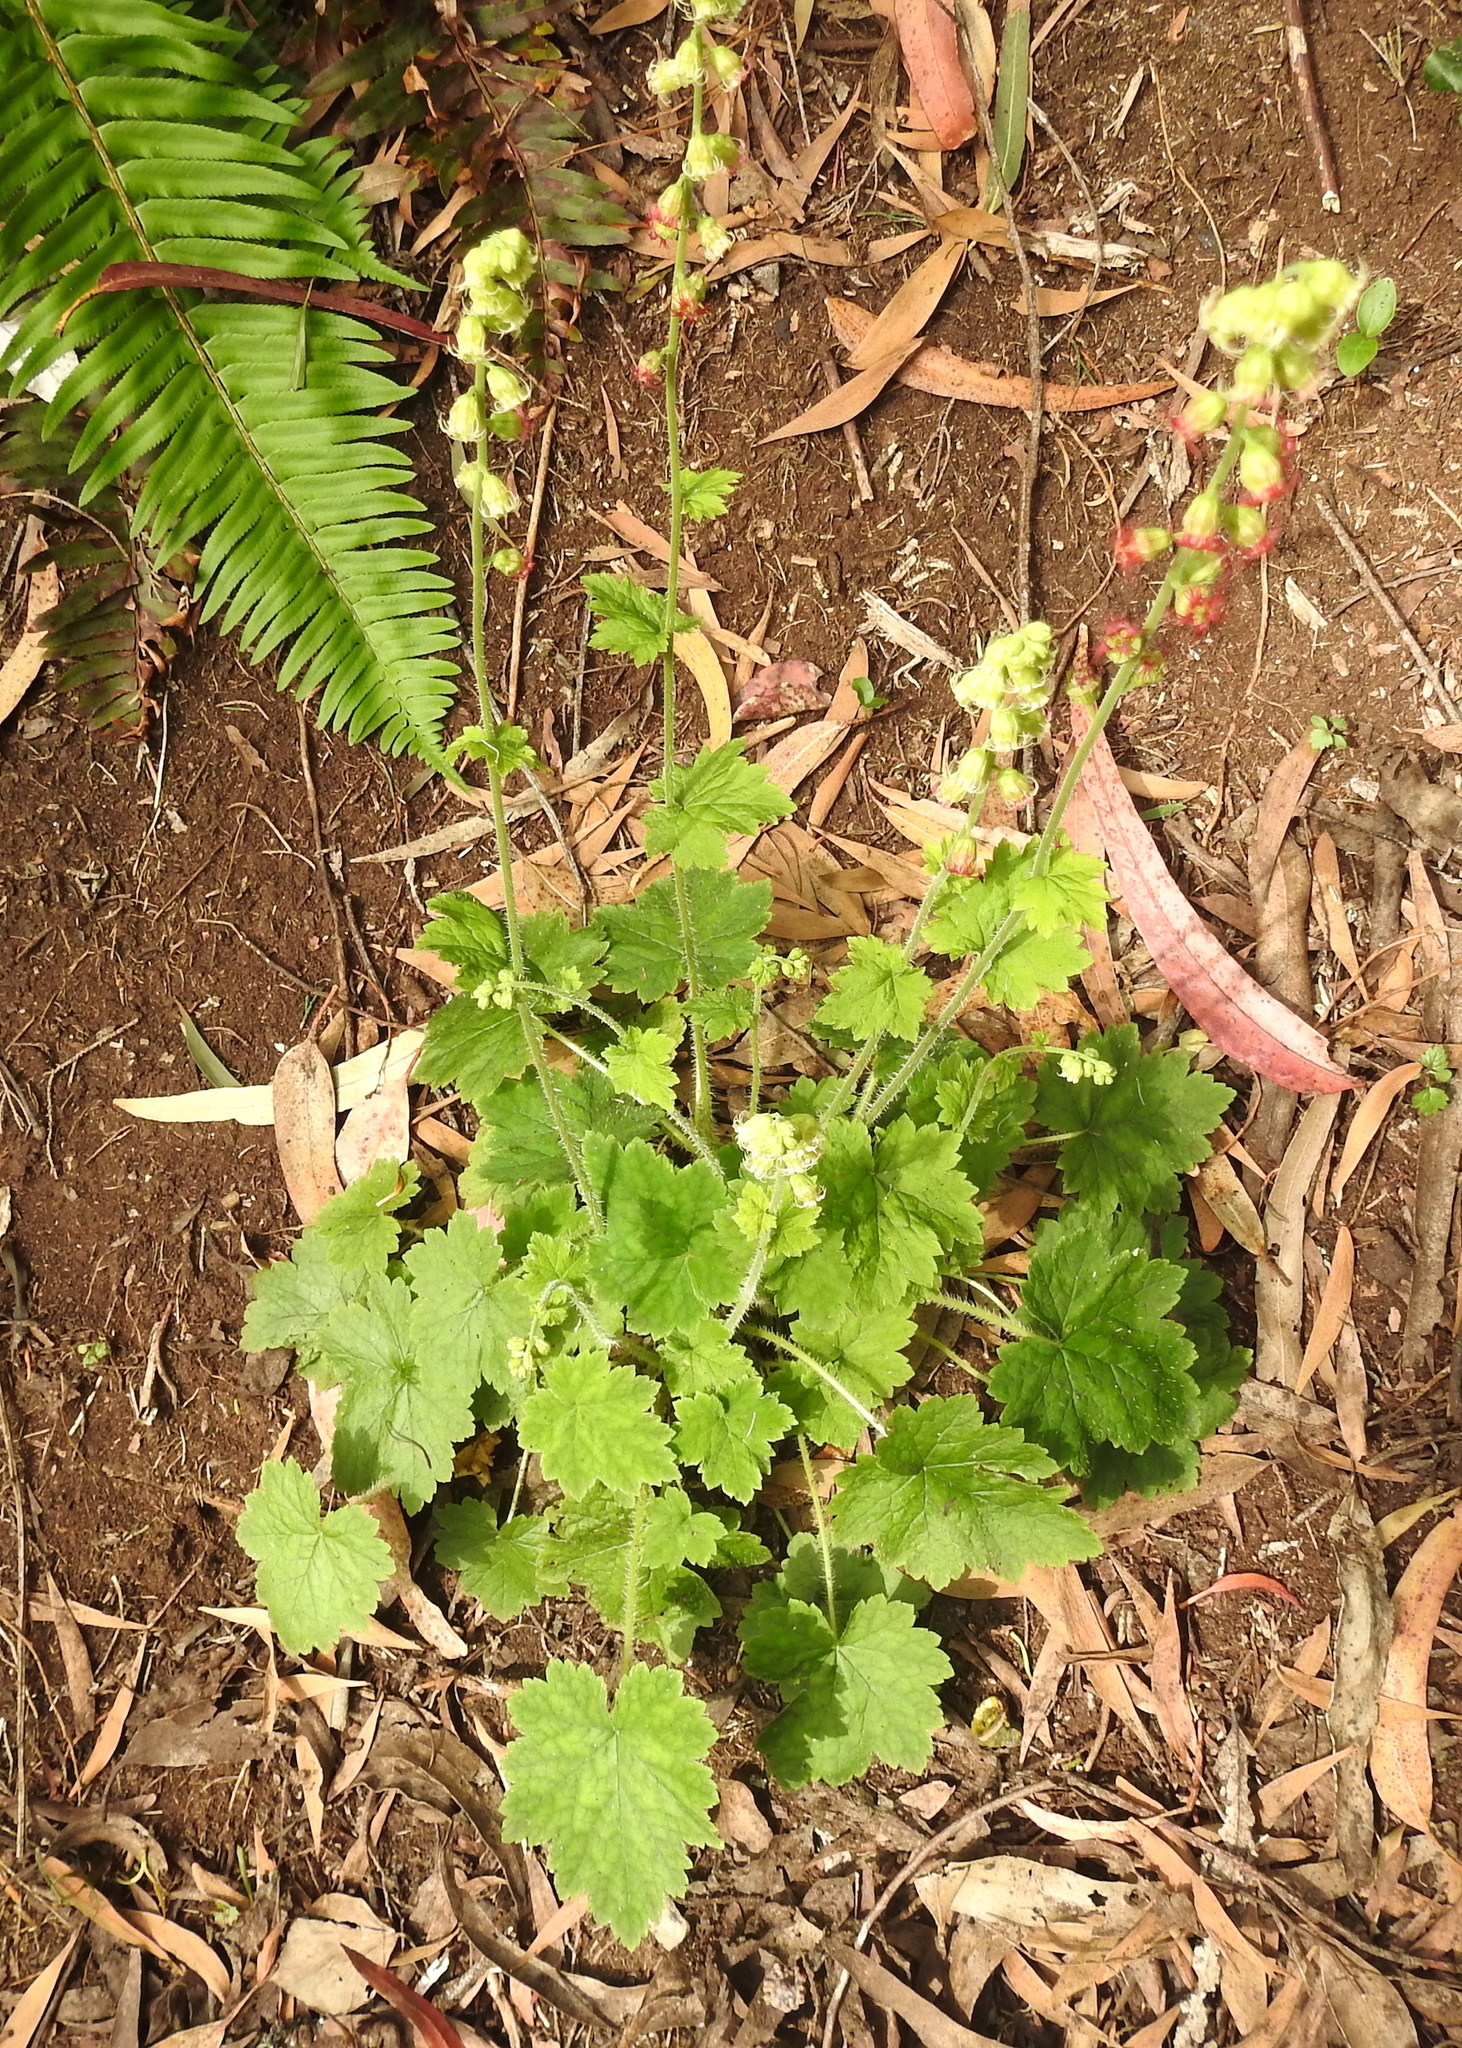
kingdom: Plantae
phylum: Tracheophyta
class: Magnoliopsida
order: Saxifragales
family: Saxifragaceae
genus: Tellima
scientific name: Tellima grandiflora
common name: Fringecups
